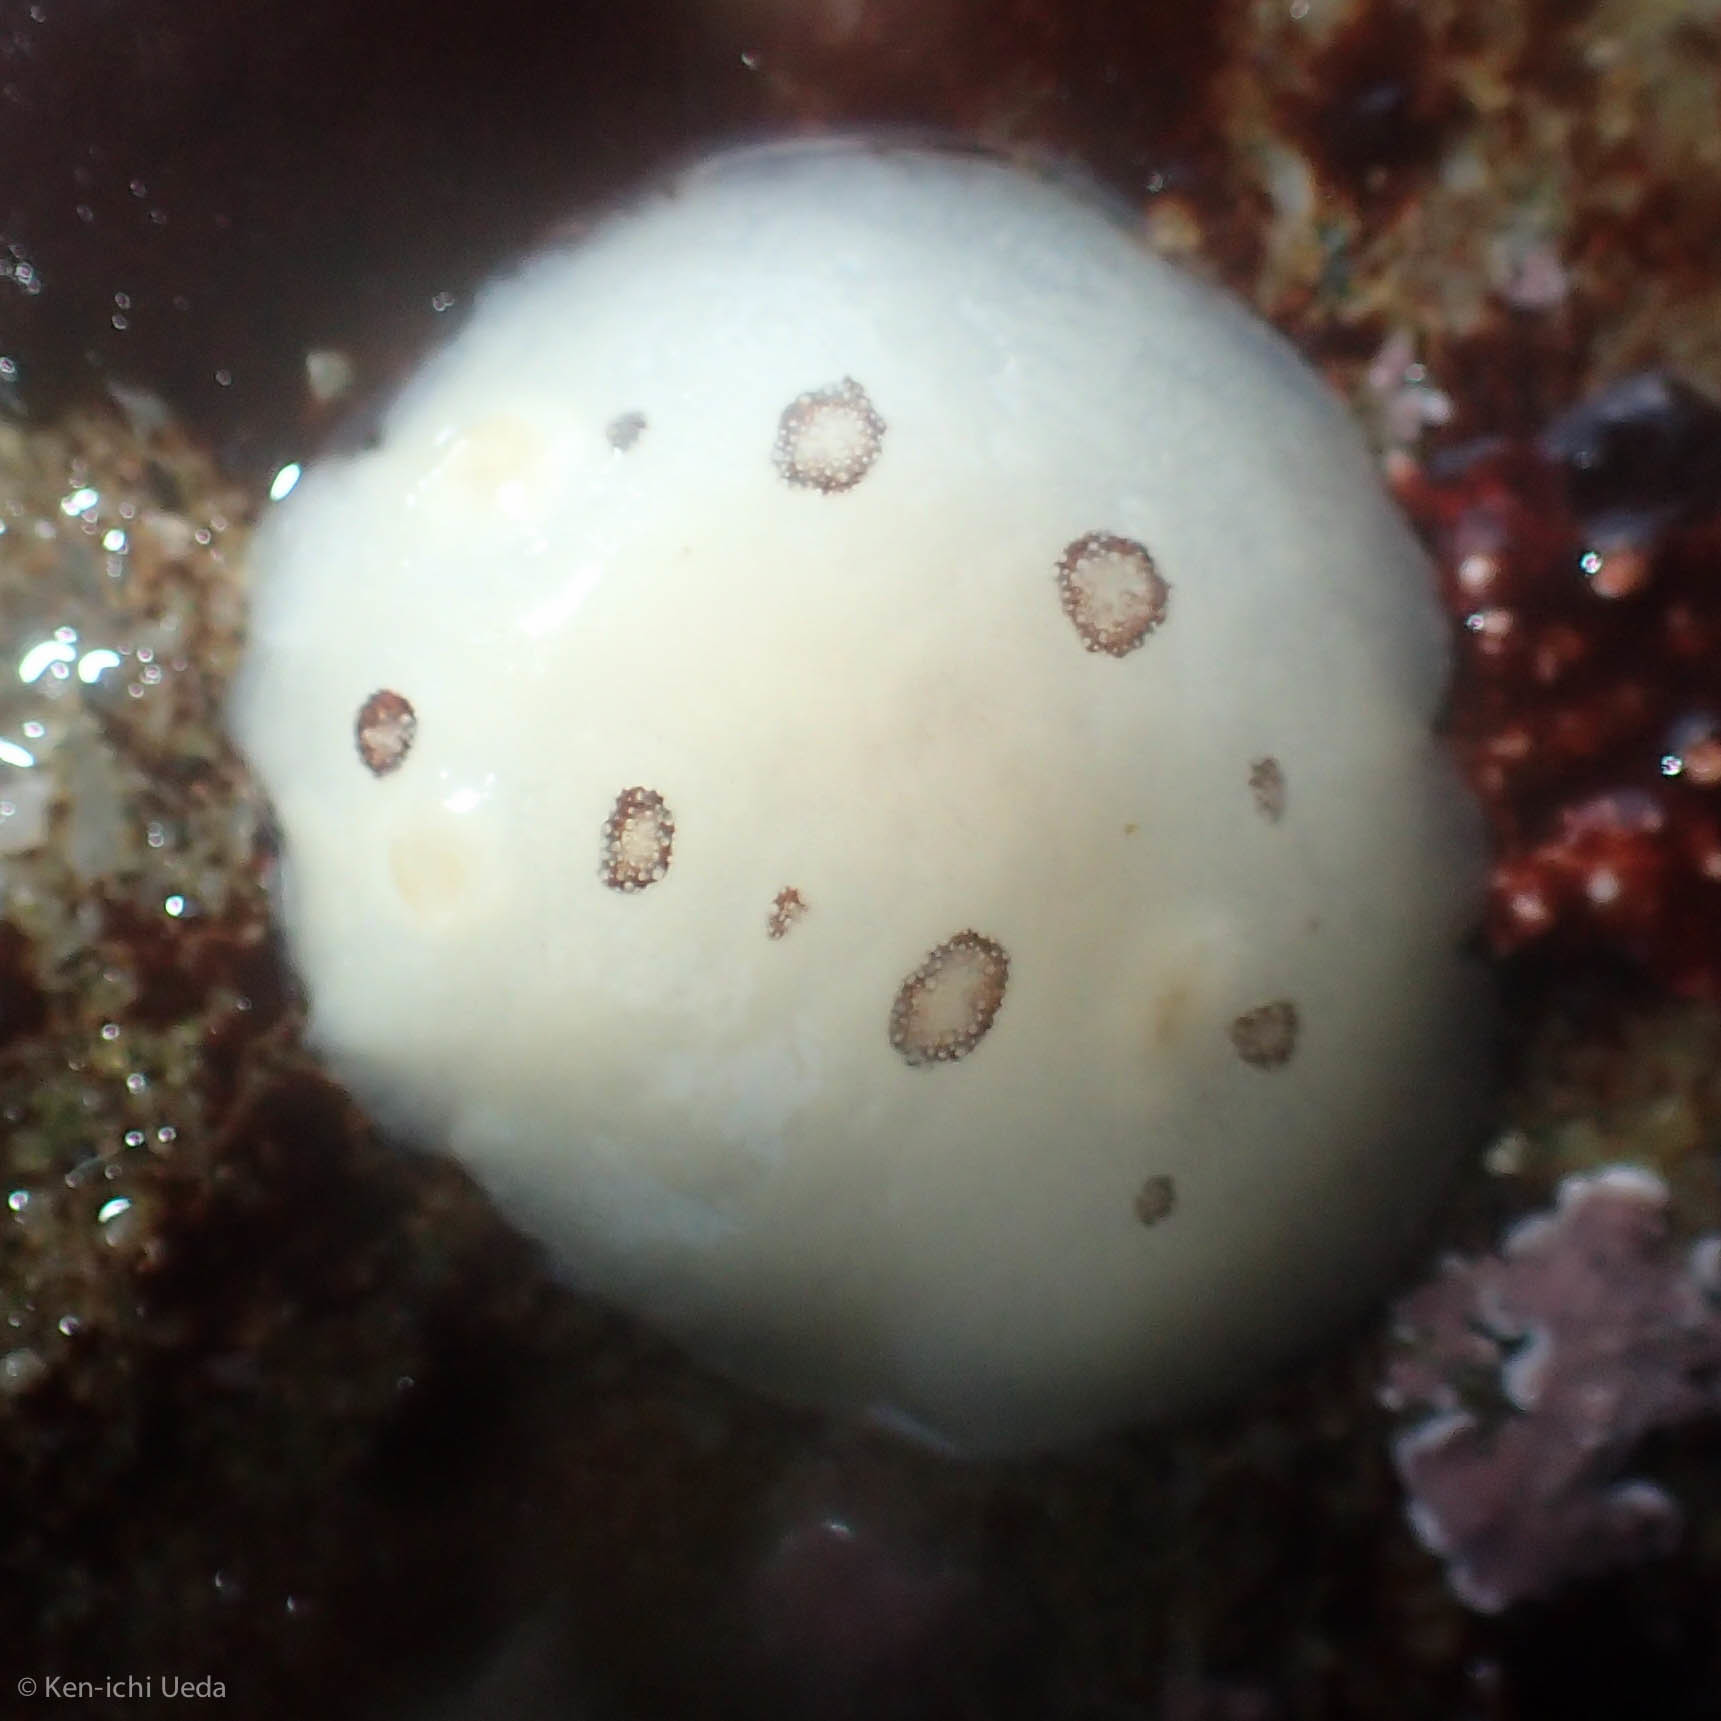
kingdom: Animalia
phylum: Mollusca
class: Gastropoda
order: Nudibranchia
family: Discodorididae
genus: Diaulula
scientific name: Diaulula sandiegensis
